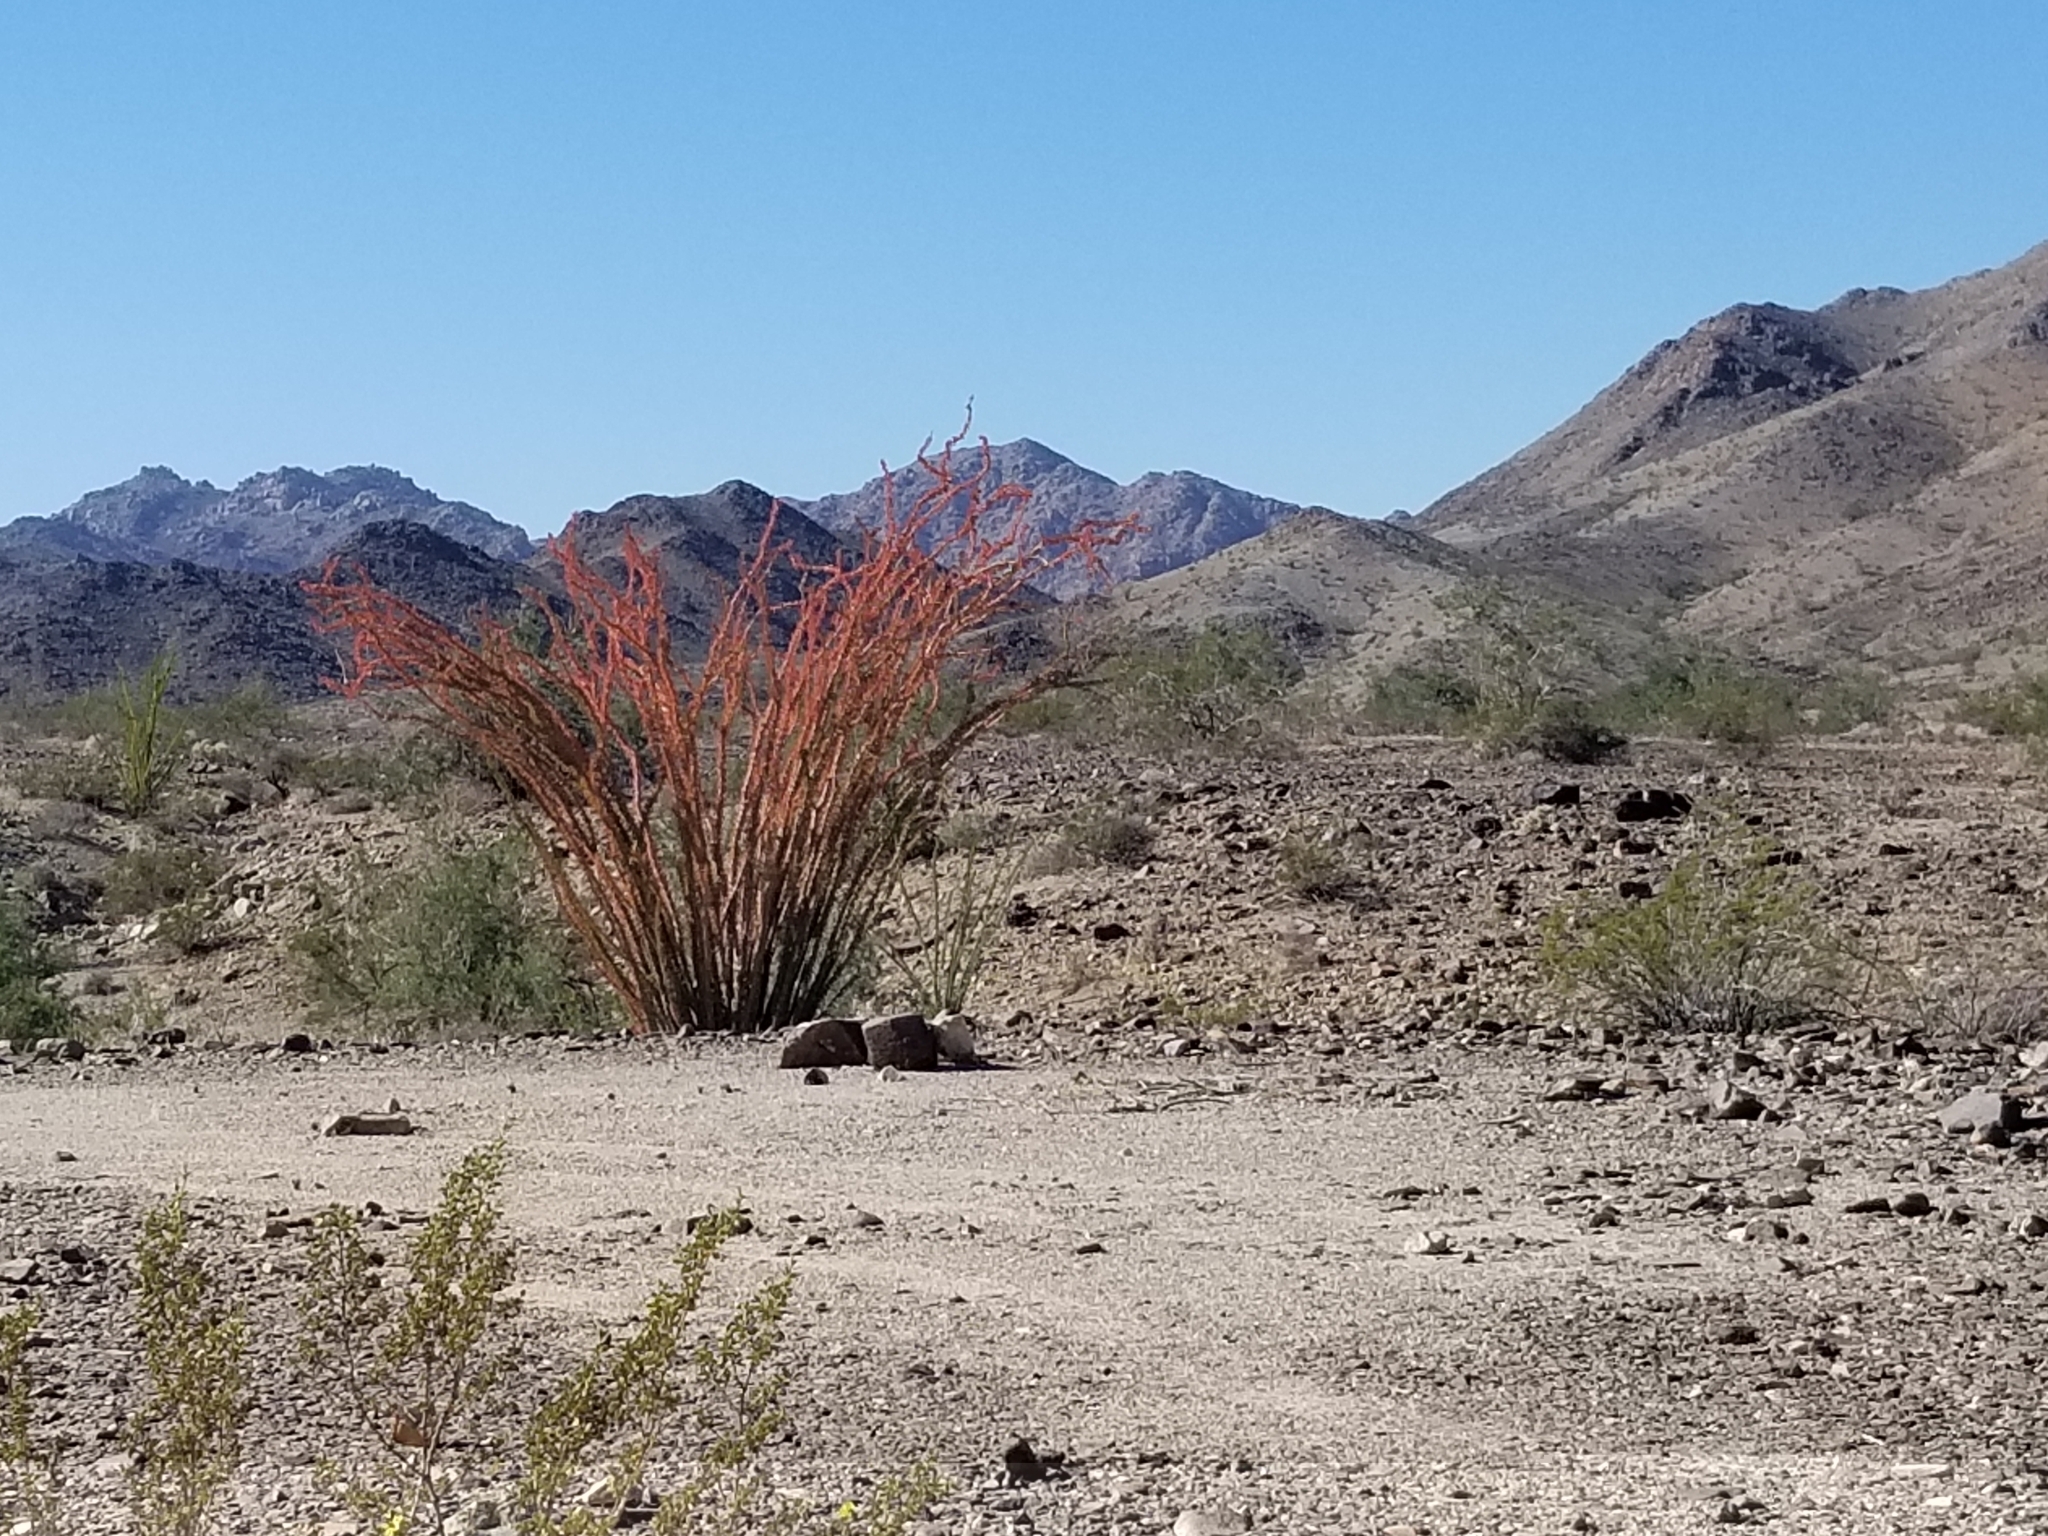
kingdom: Plantae
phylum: Tracheophyta
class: Magnoliopsida
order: Ericales
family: Fouquieriaceae
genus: Fouquieria
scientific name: Fouquieria splendens
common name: Vine-cactus
